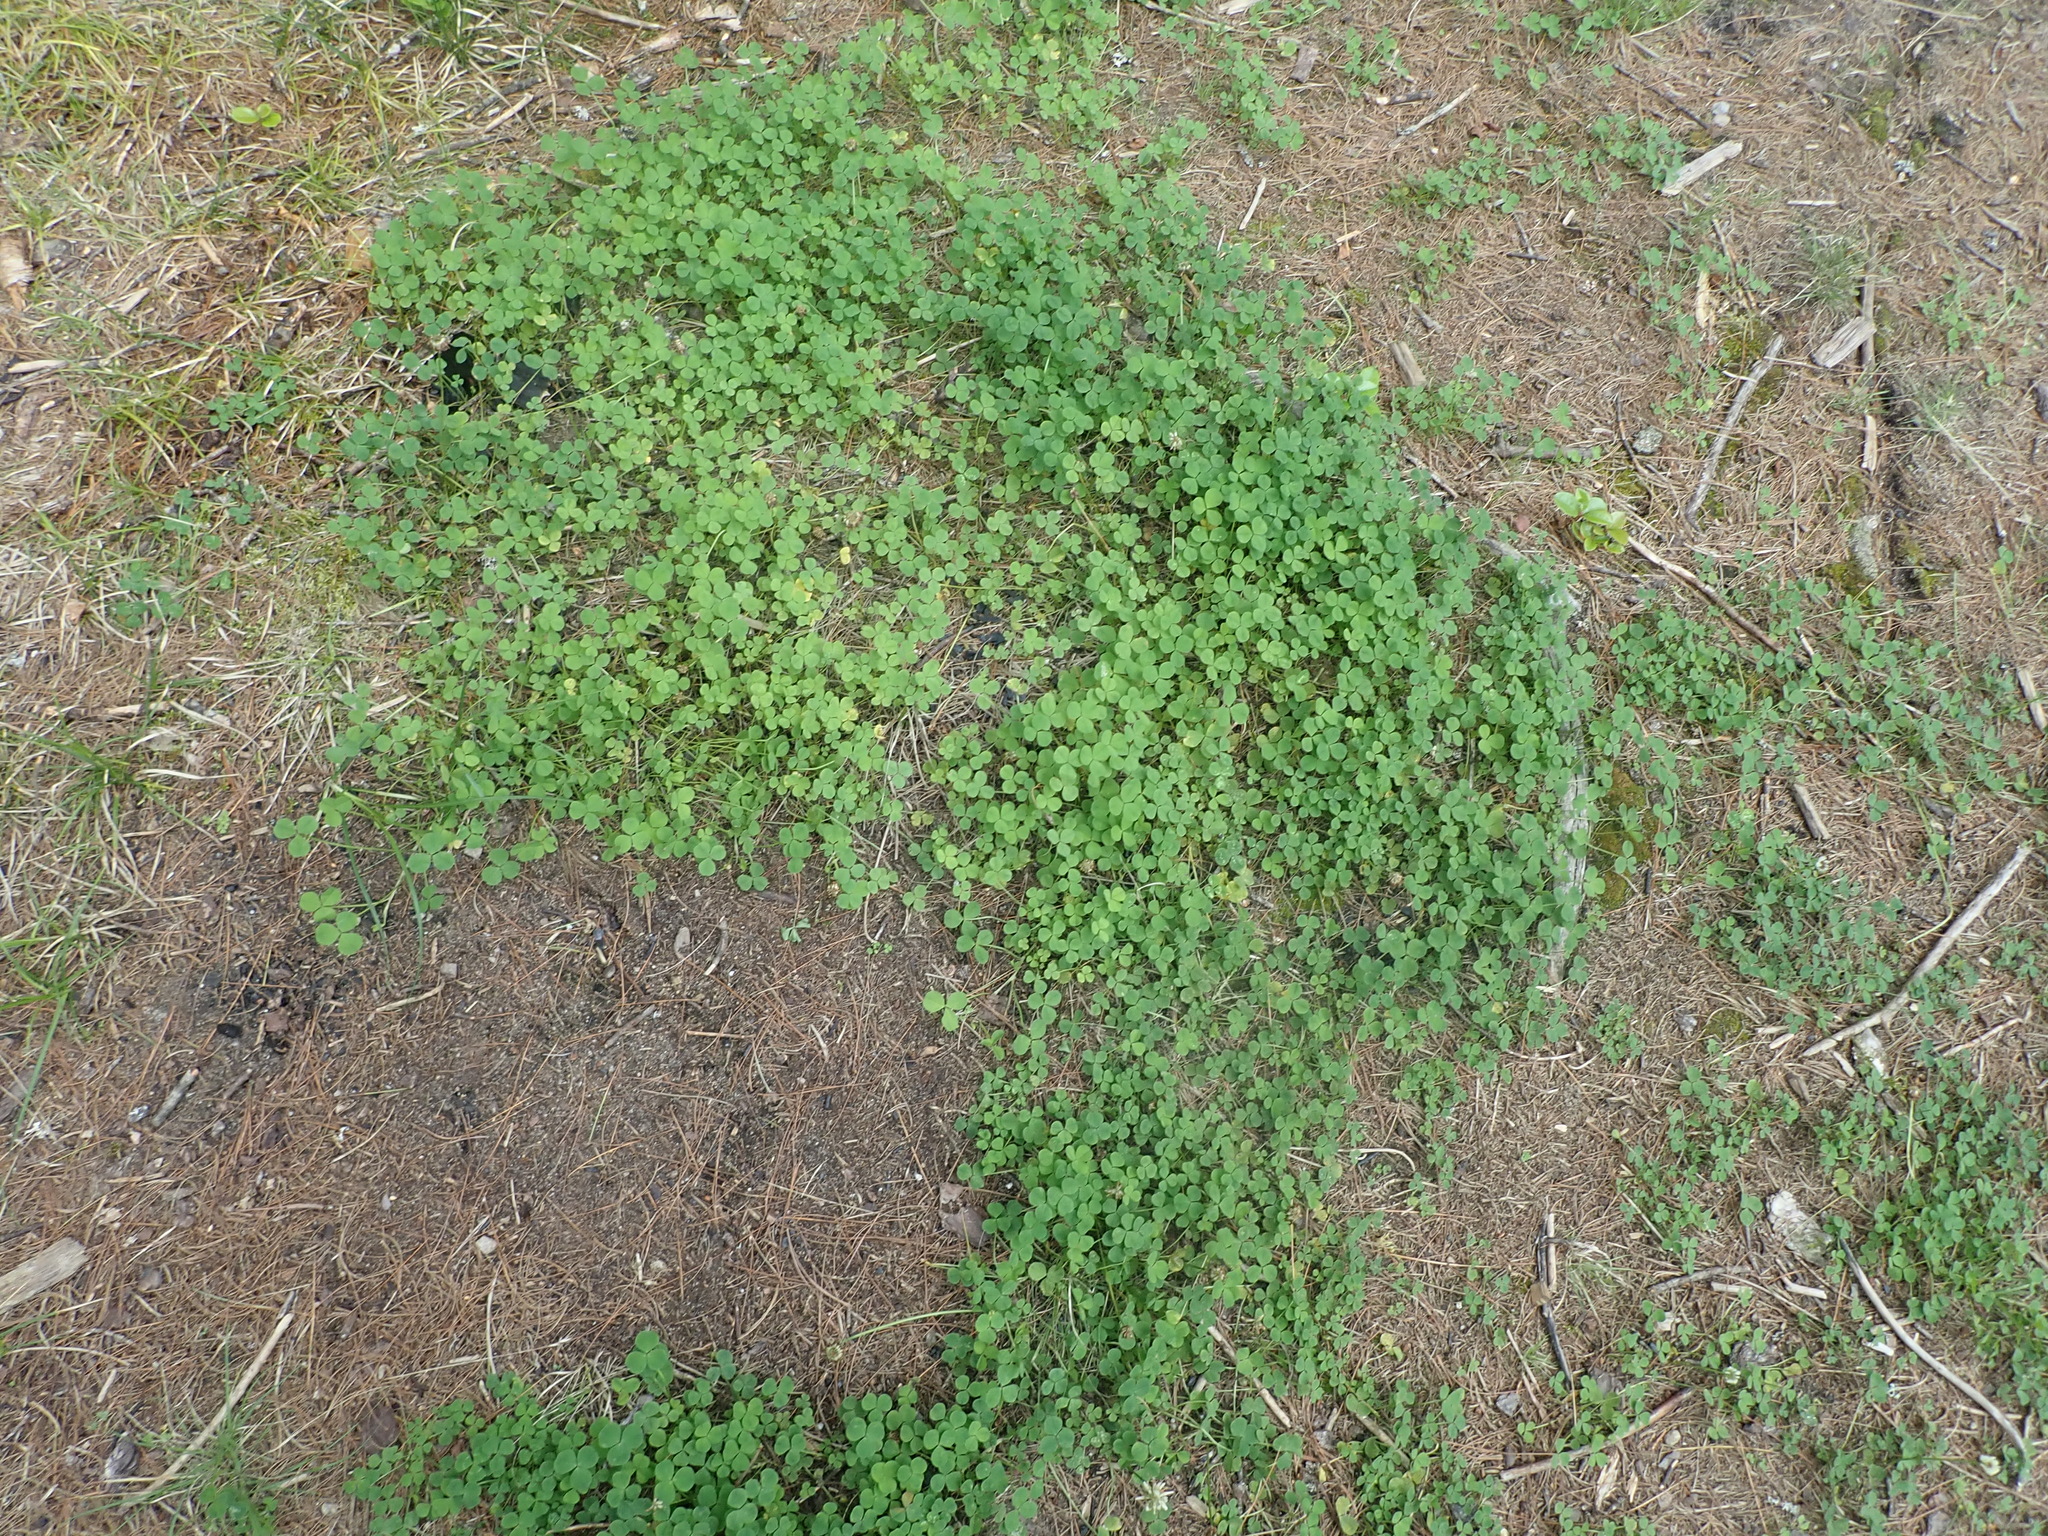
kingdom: Plantae
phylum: Tracheophyta
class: Magnoliopsida
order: Fabales
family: Fabaceae
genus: Trifolium
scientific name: Trifolium repens
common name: White clover
